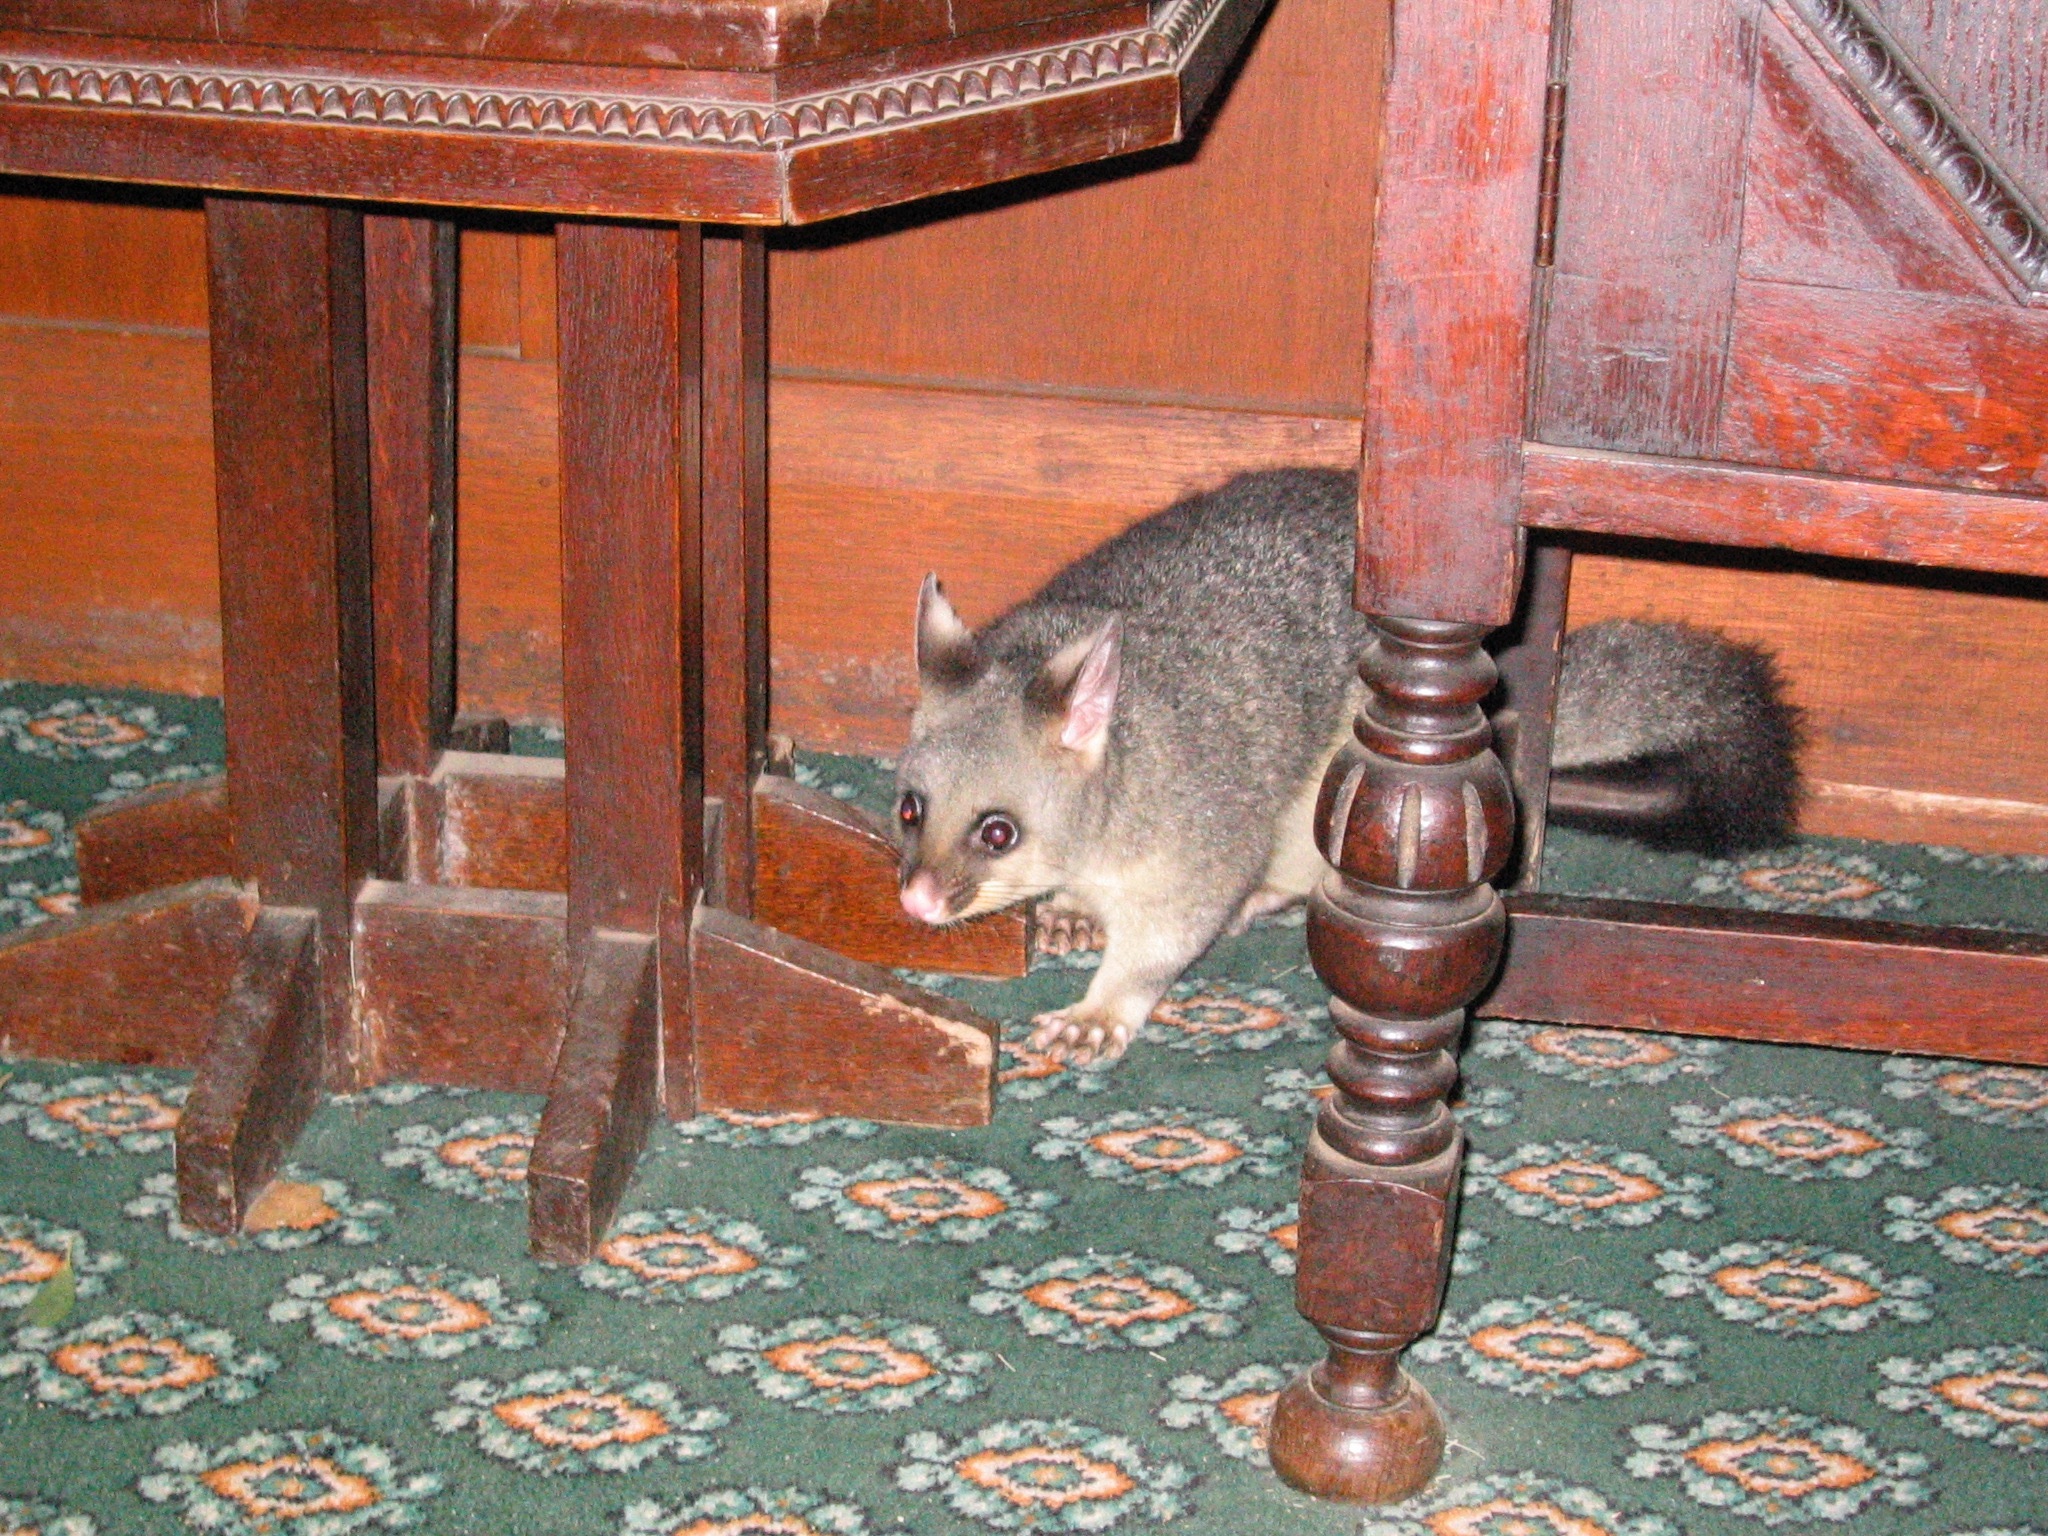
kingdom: Animalia
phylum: Chordata
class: Mammalia
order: Diprotodontia
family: Phalangeridae
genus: Trichosurus
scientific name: Trichosurus vulpecula
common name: Common brushtail
